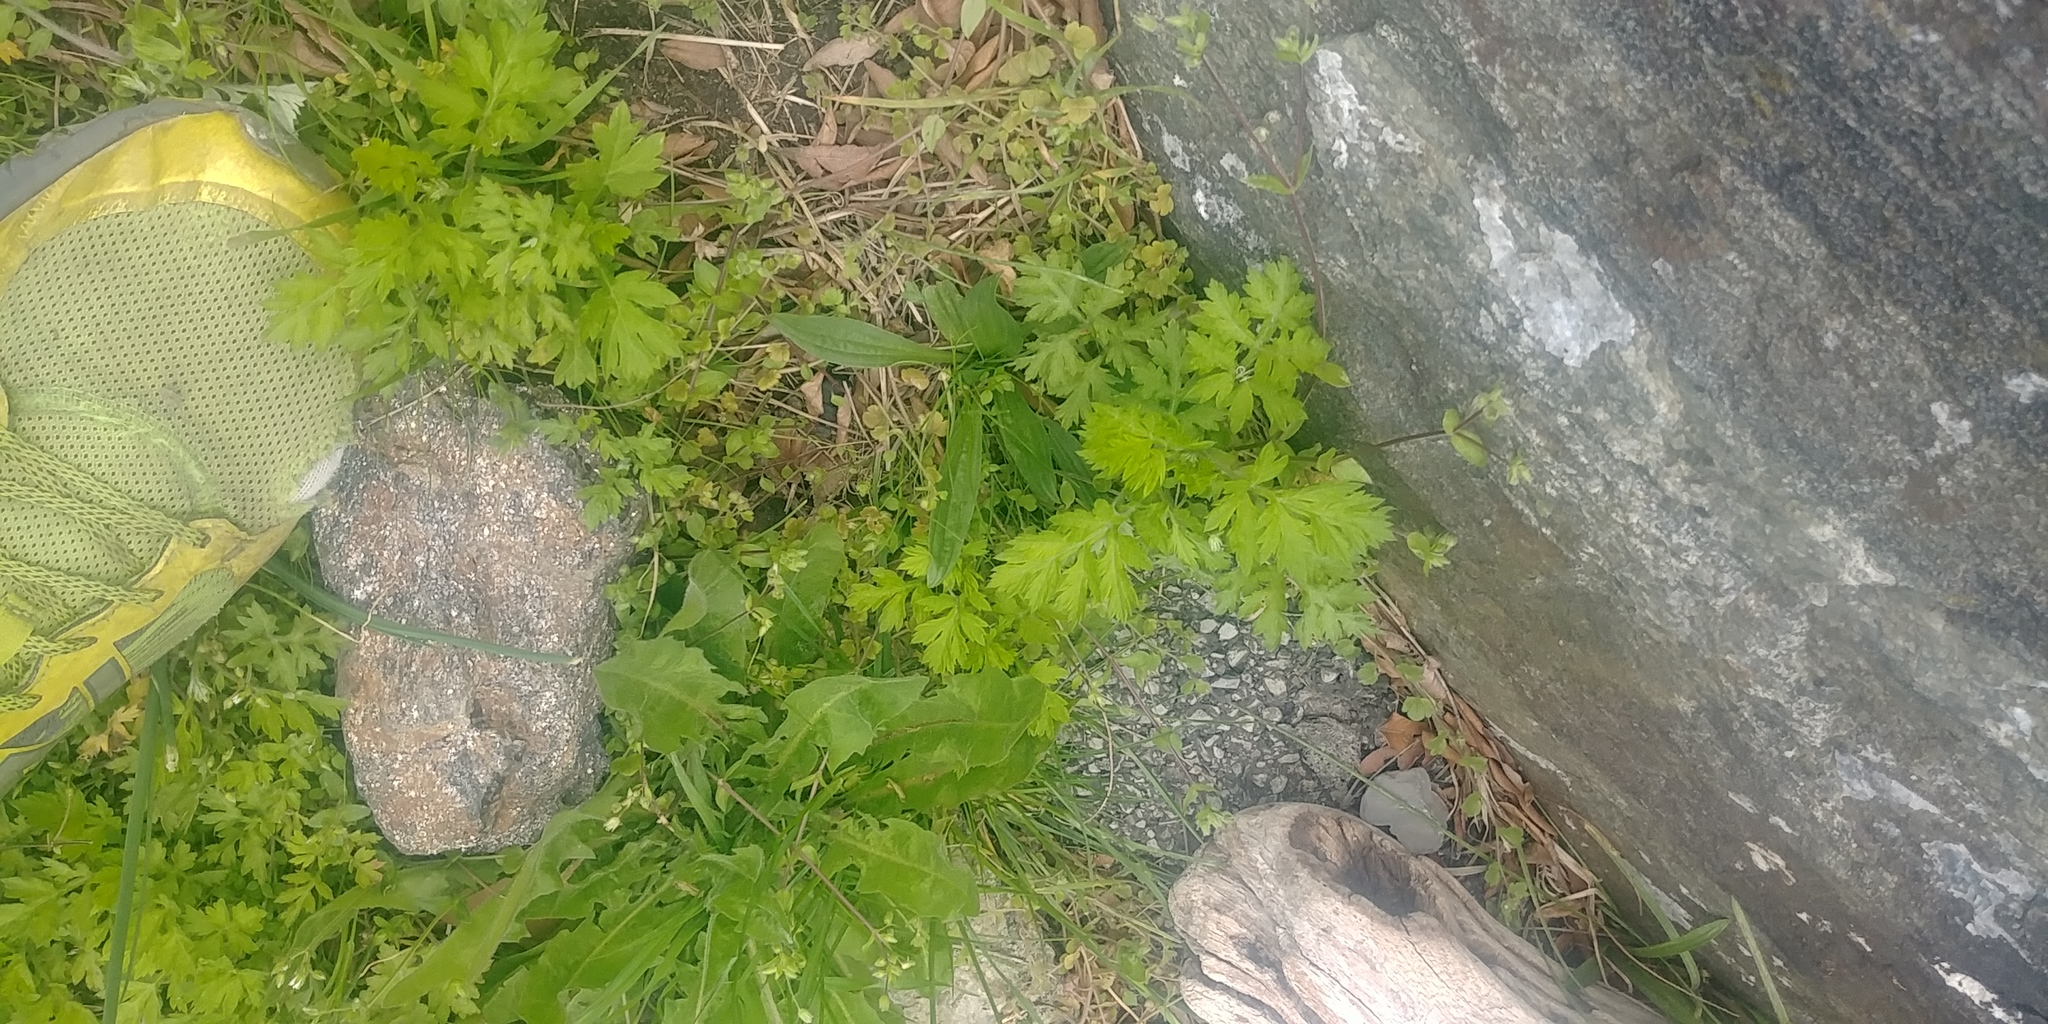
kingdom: Plantae
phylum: Tracheophyta
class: Magnoliopsida
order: Asterales
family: Asteraceae
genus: Artemisia
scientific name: Artemisia vulgaris
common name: Mugwort
